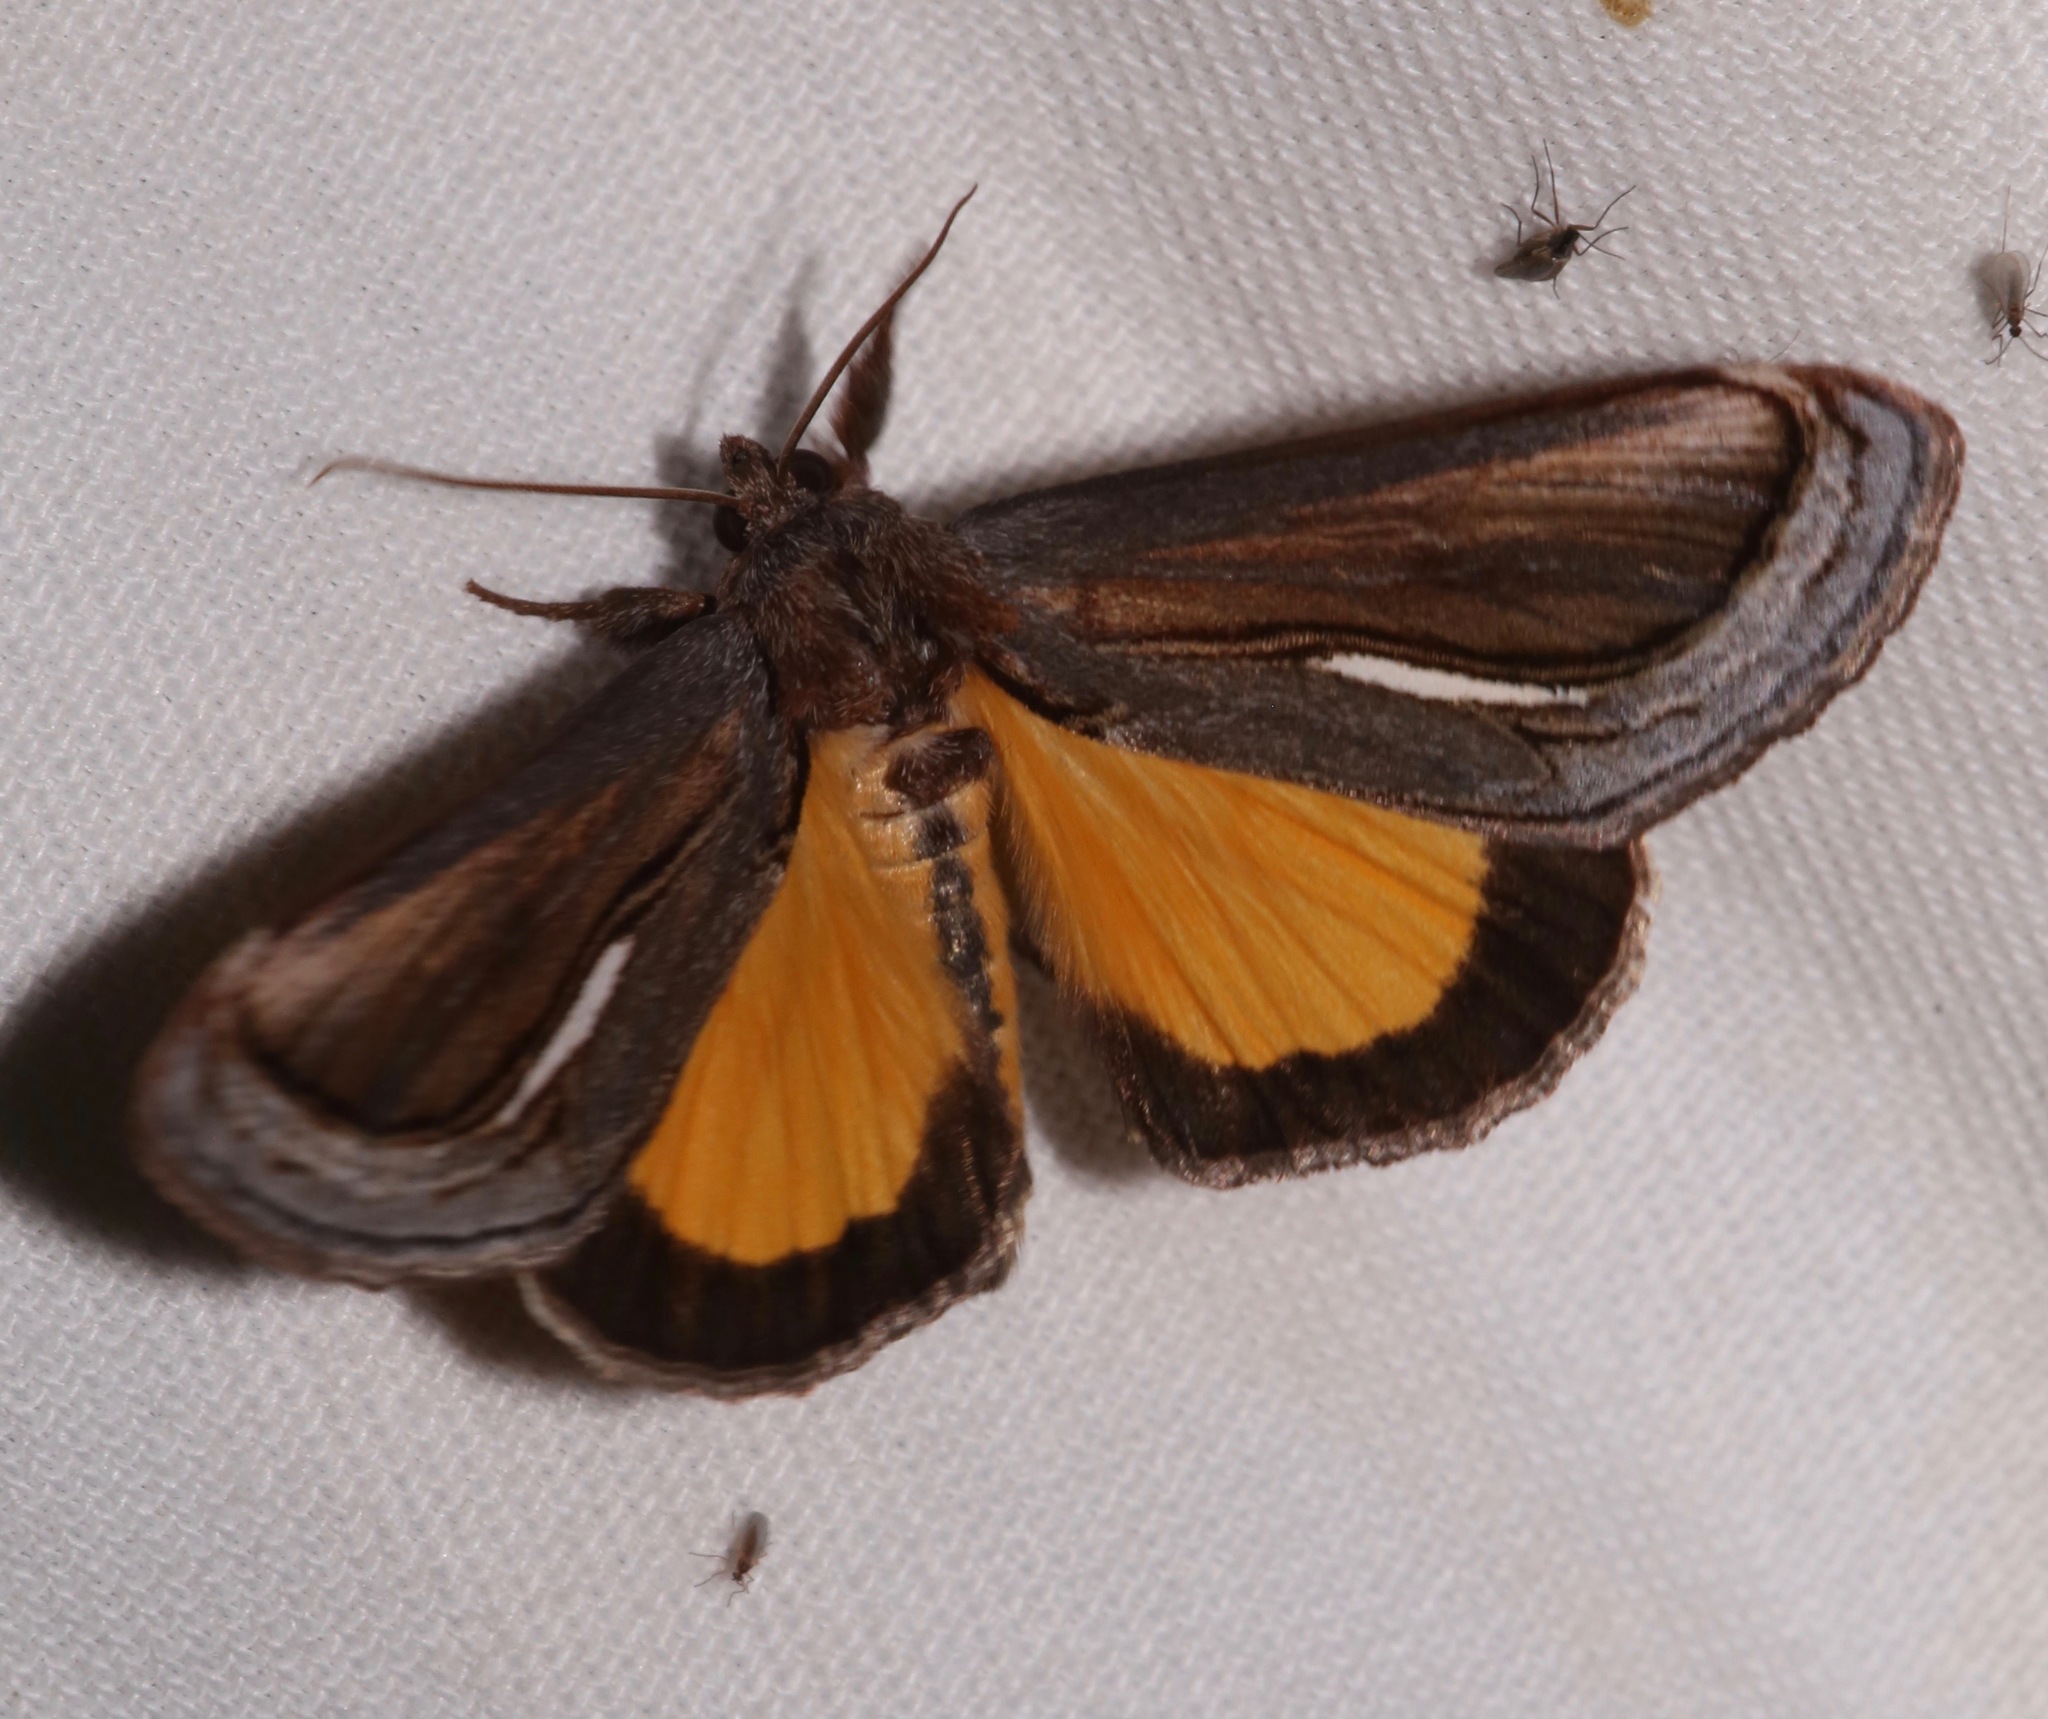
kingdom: Animalia
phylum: Arthropoda
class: Insecta
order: Lepidoptera
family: Noctuidae
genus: Gerrodes
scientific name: Gerrodes minatea
